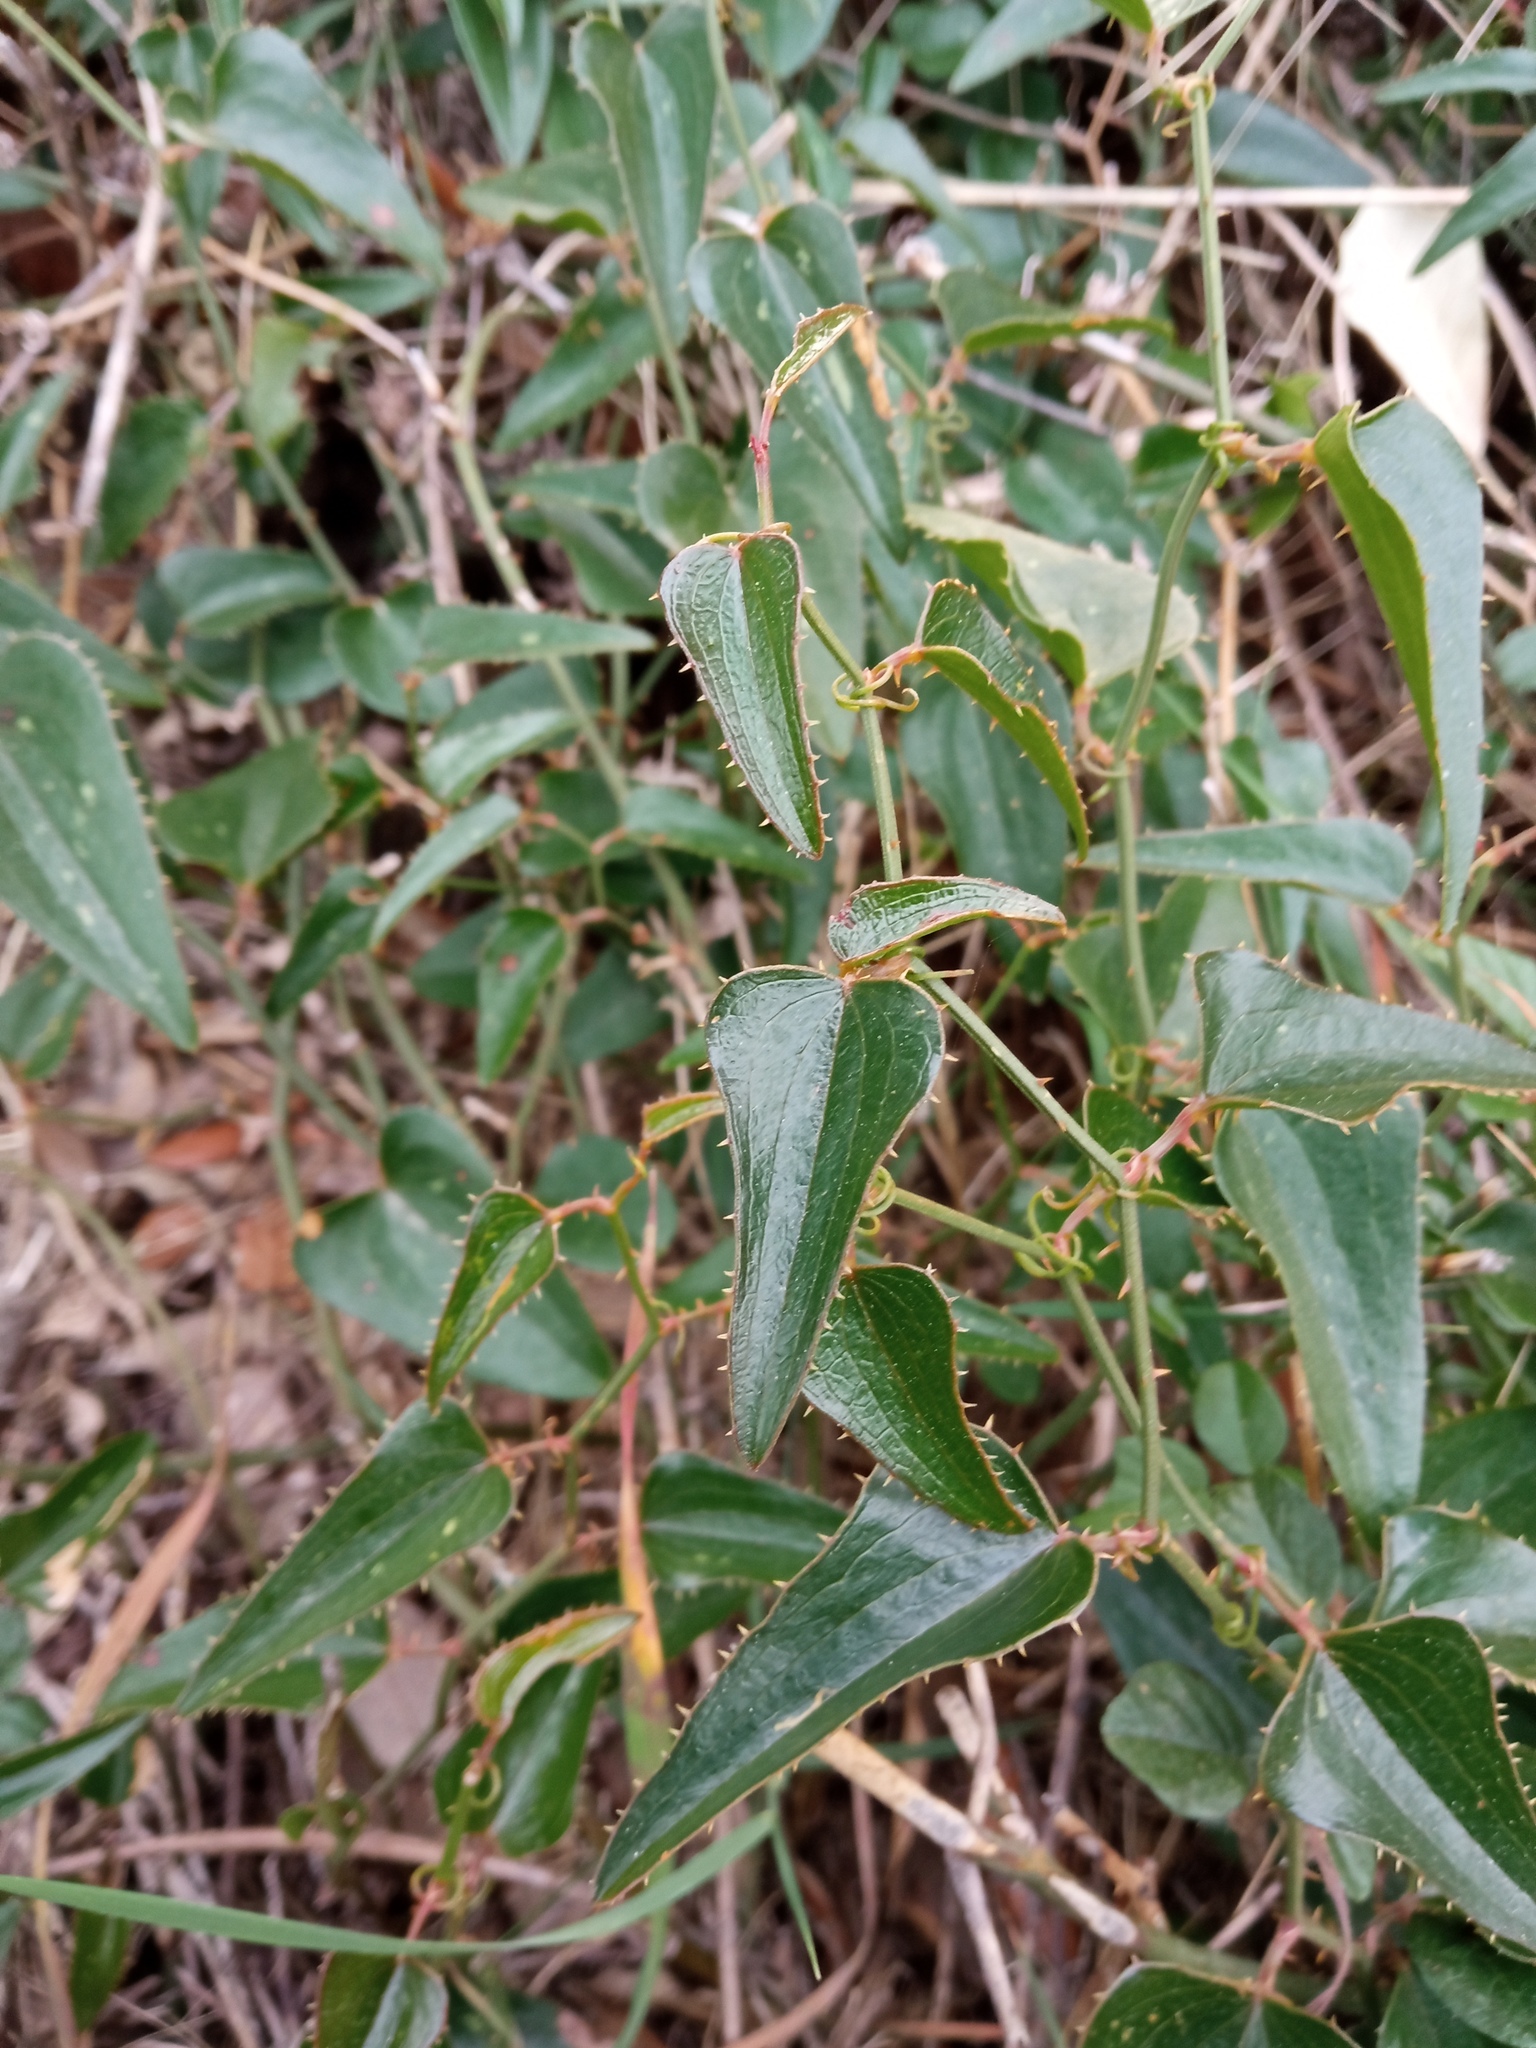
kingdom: Plantae
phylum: Tracheophyta
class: Liliopsida
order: Liliales
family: Smilacaceae
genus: Smilax
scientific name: Smilax aspera
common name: Common smilax
